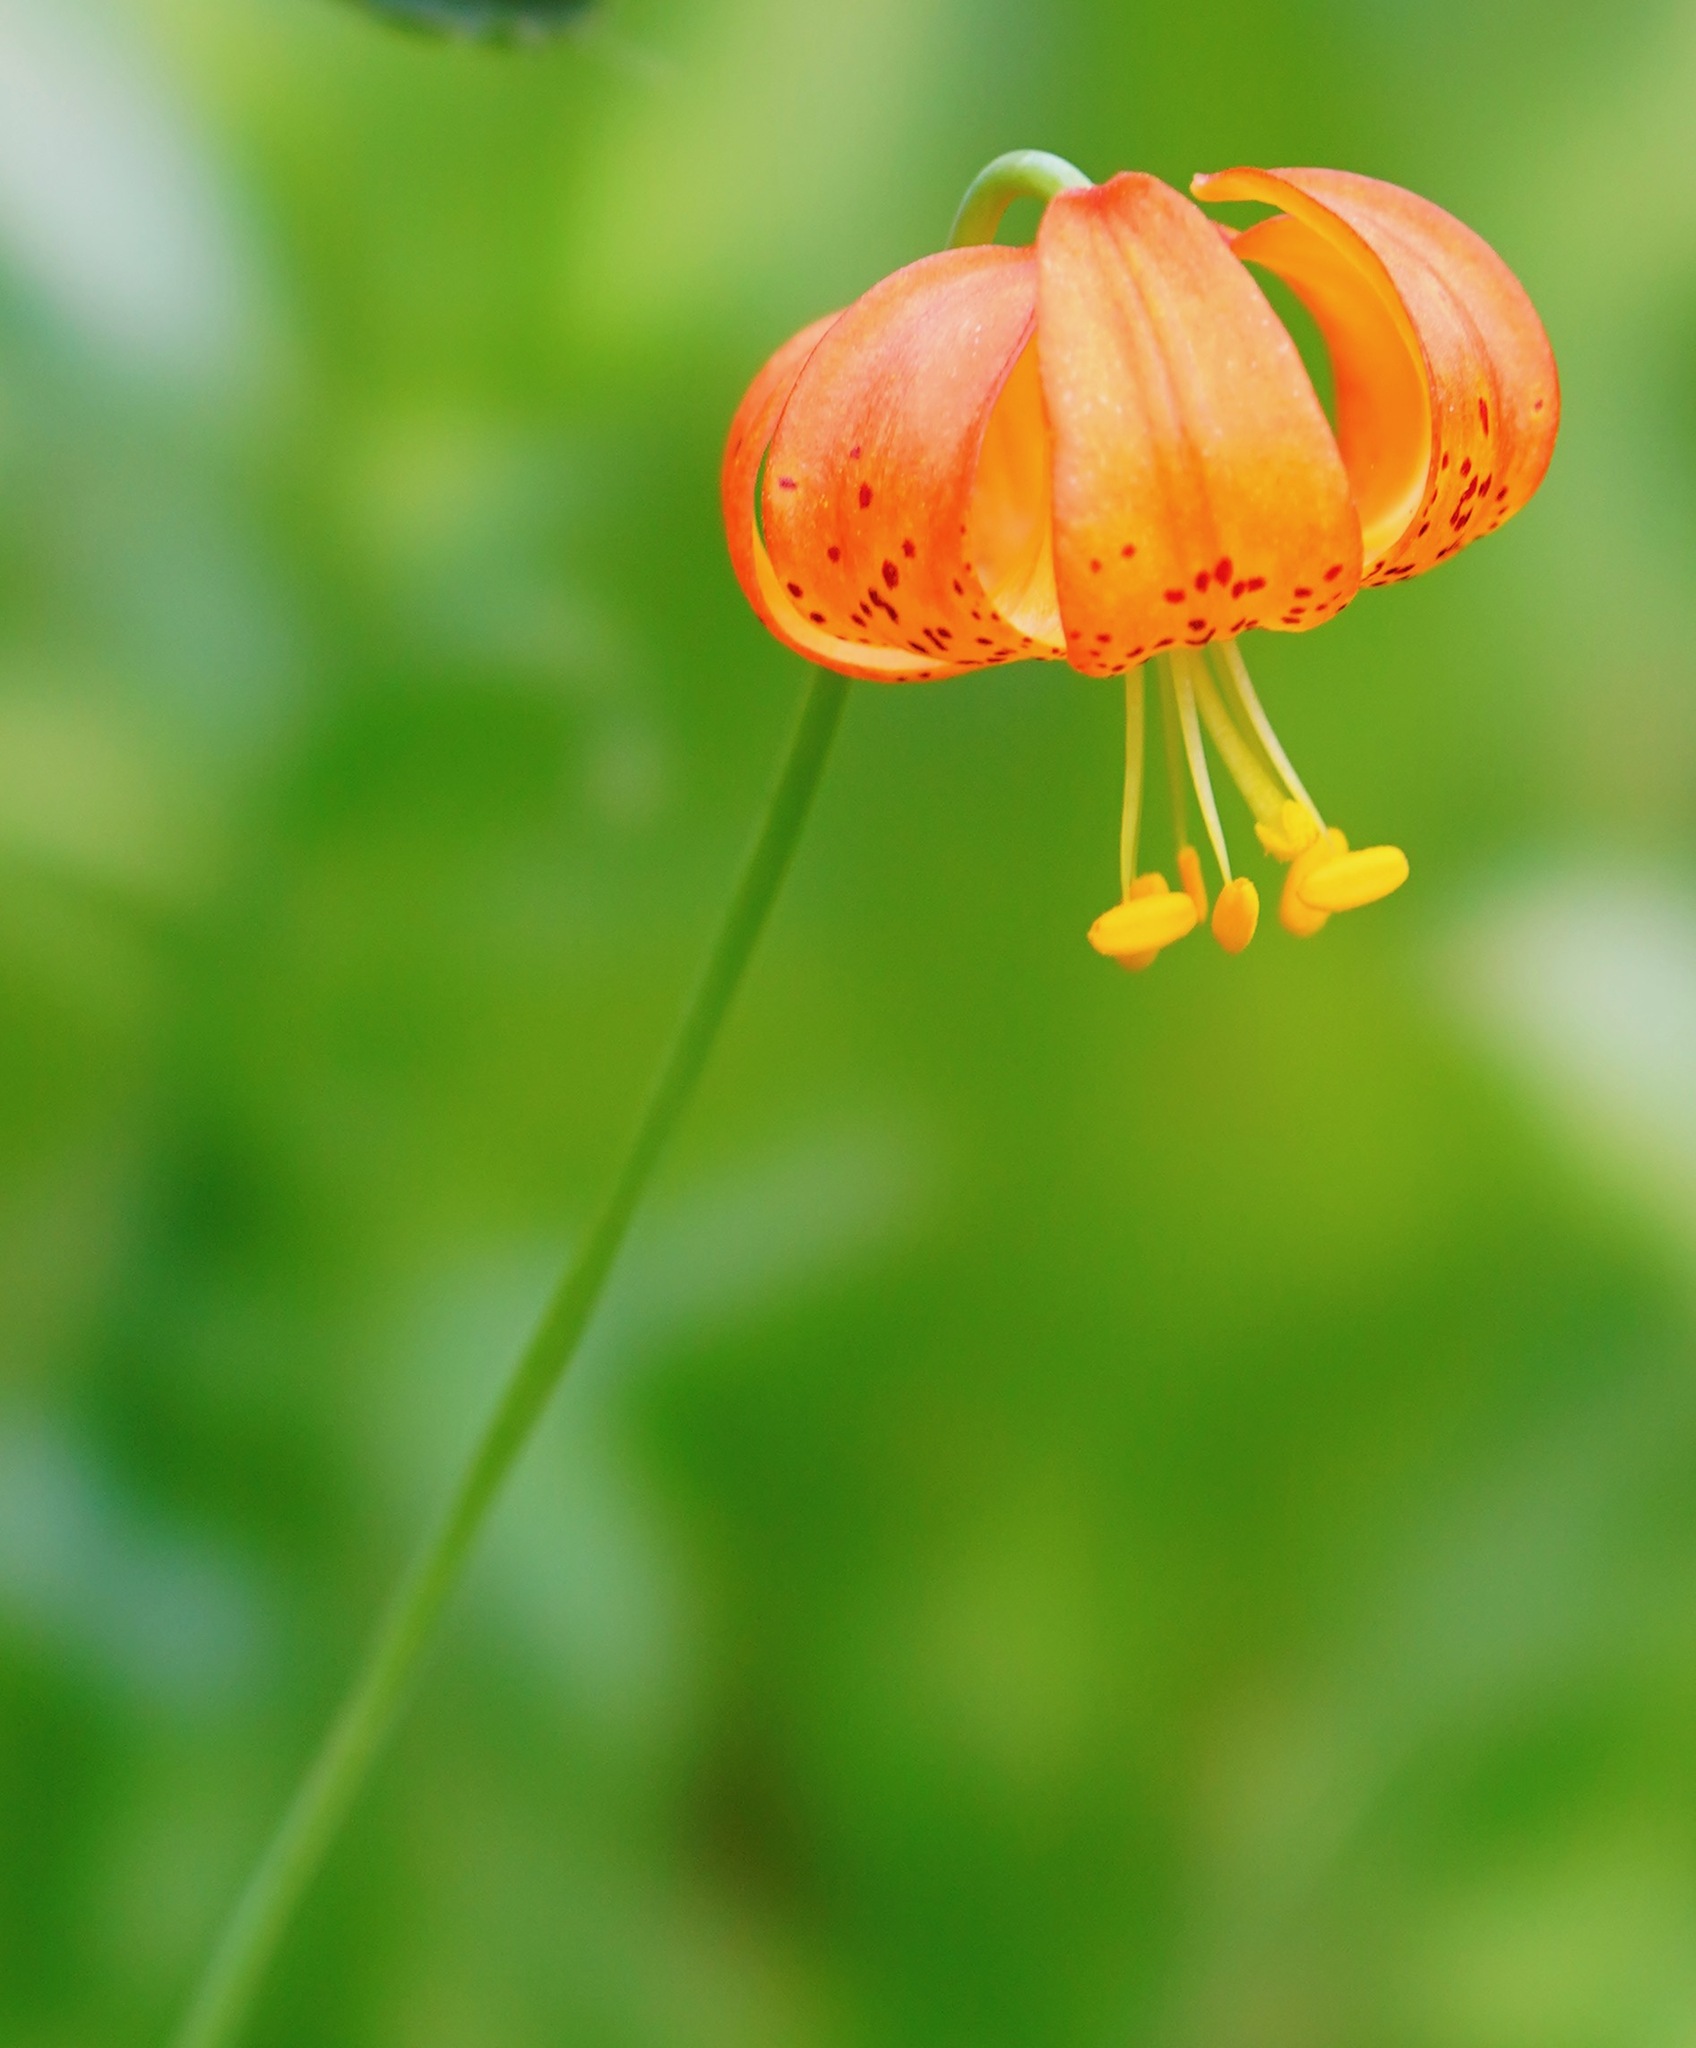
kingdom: Plantae
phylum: Tracheophyta
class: Liliopsida
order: Liliales
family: Liliaceae
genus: Lilium
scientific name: Lilium pardalinum
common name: Panther lily
